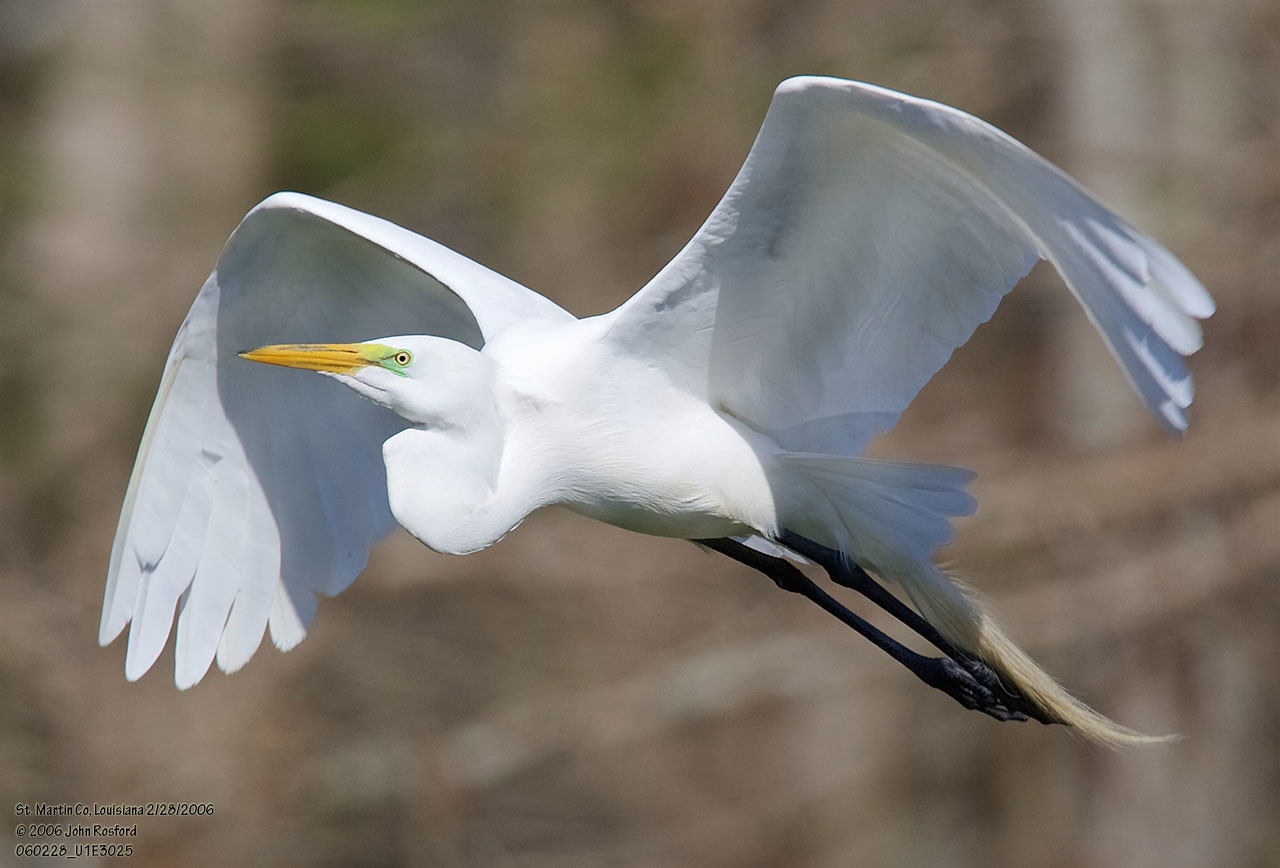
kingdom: Animalia
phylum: Chordata
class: Aves
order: Pelecaniformes
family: Ardeidae
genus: Ardea
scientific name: Ardea alba
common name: Great egret
